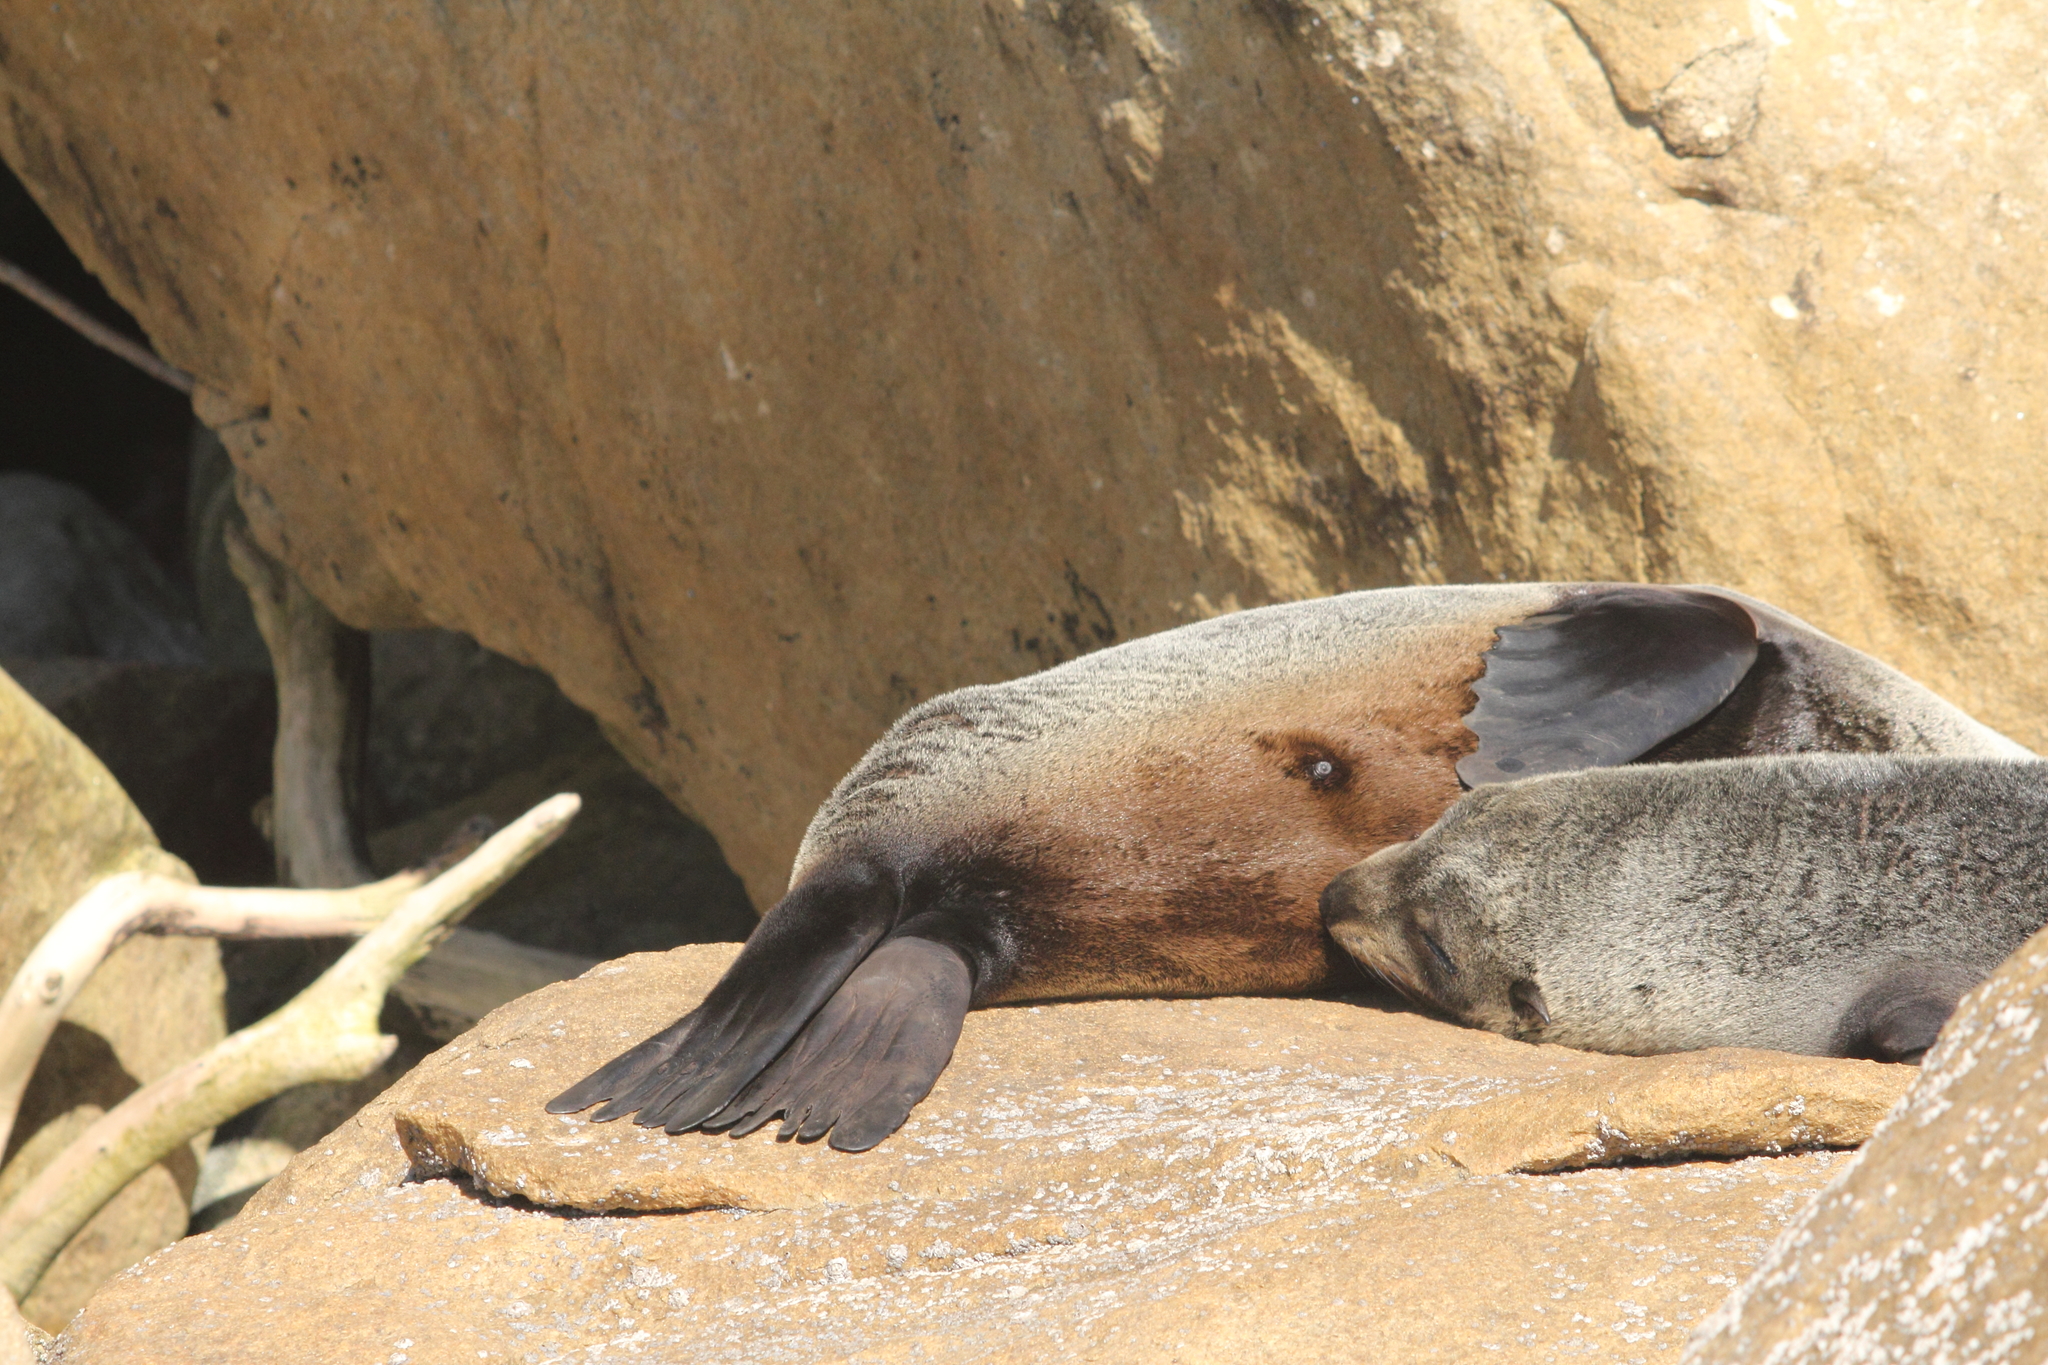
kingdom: Animalia
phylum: Chordata
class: Mammalia
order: Carnivora
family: Otariidae
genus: Arctocephalus
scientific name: Arctocephalus forsteri
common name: New zealand fur seal
